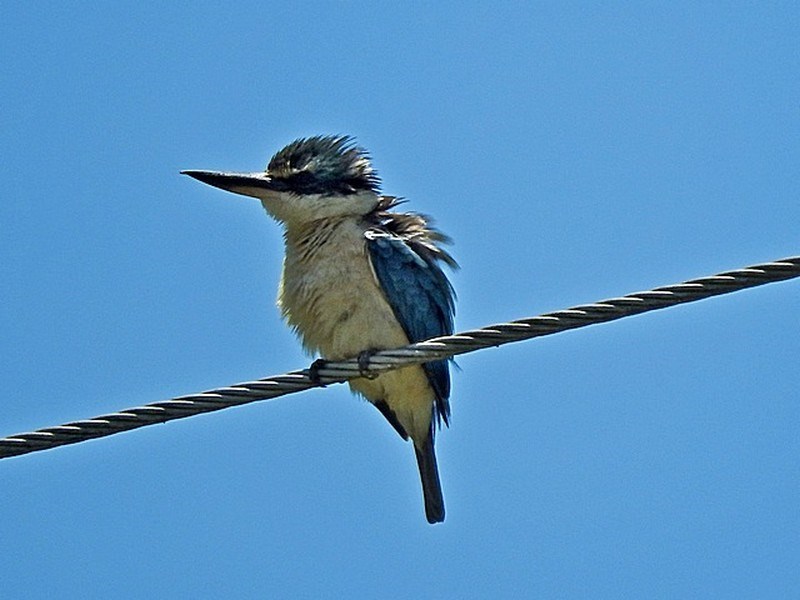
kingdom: Animalia
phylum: Chordata
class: Aves
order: Coraciiformes
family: Alcedinidae
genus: Todiramphus
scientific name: Todiramphus sanctus
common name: Sacred kingfisher
